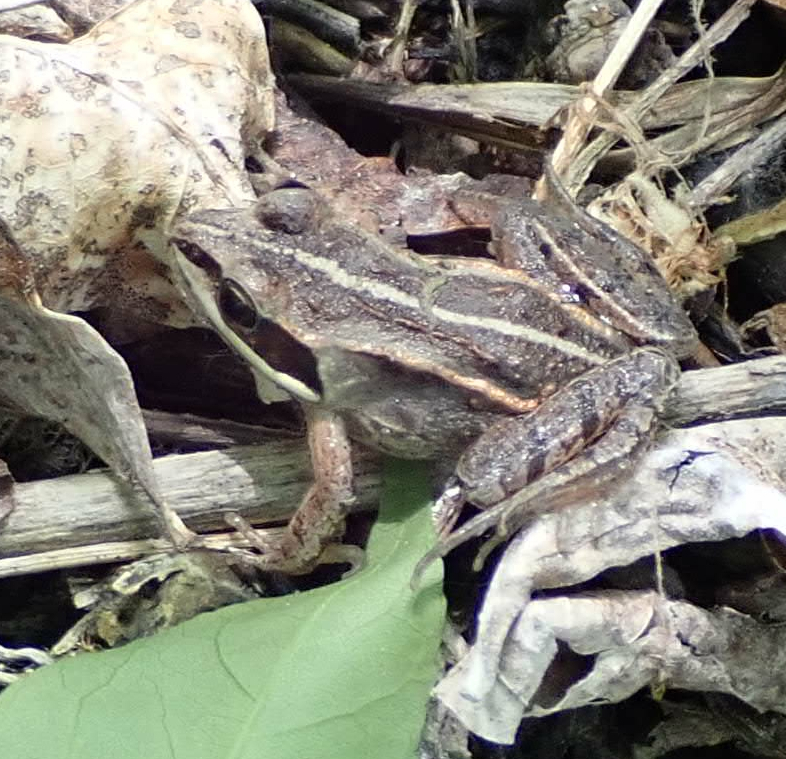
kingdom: Animalia
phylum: Chordata
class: Amphibia
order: Anura
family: Ranidae
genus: Lithobates
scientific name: Lithobates sylvaticus
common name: Wood frog
